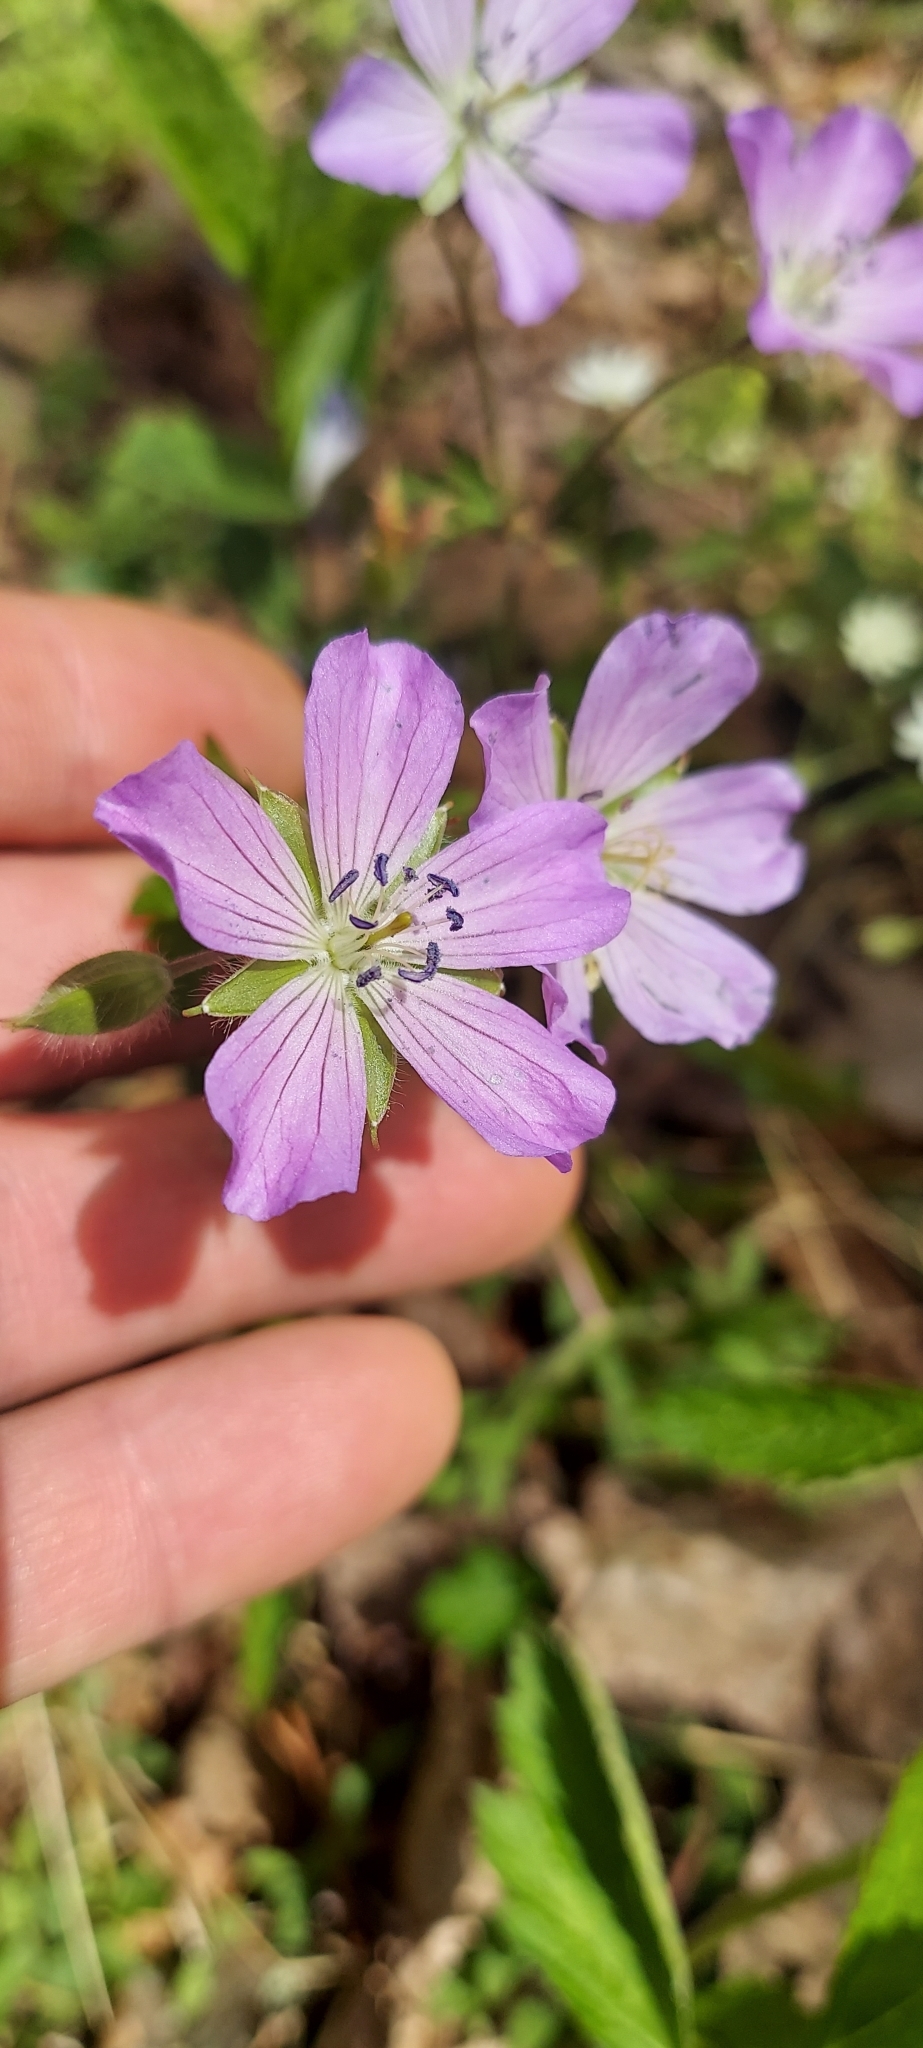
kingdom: Plantae
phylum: Tracheophyta
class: Magnoliopsida
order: Geraniales
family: Geraniaceae
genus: Geranium
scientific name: Geranium maculatum
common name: Spotted geranium
